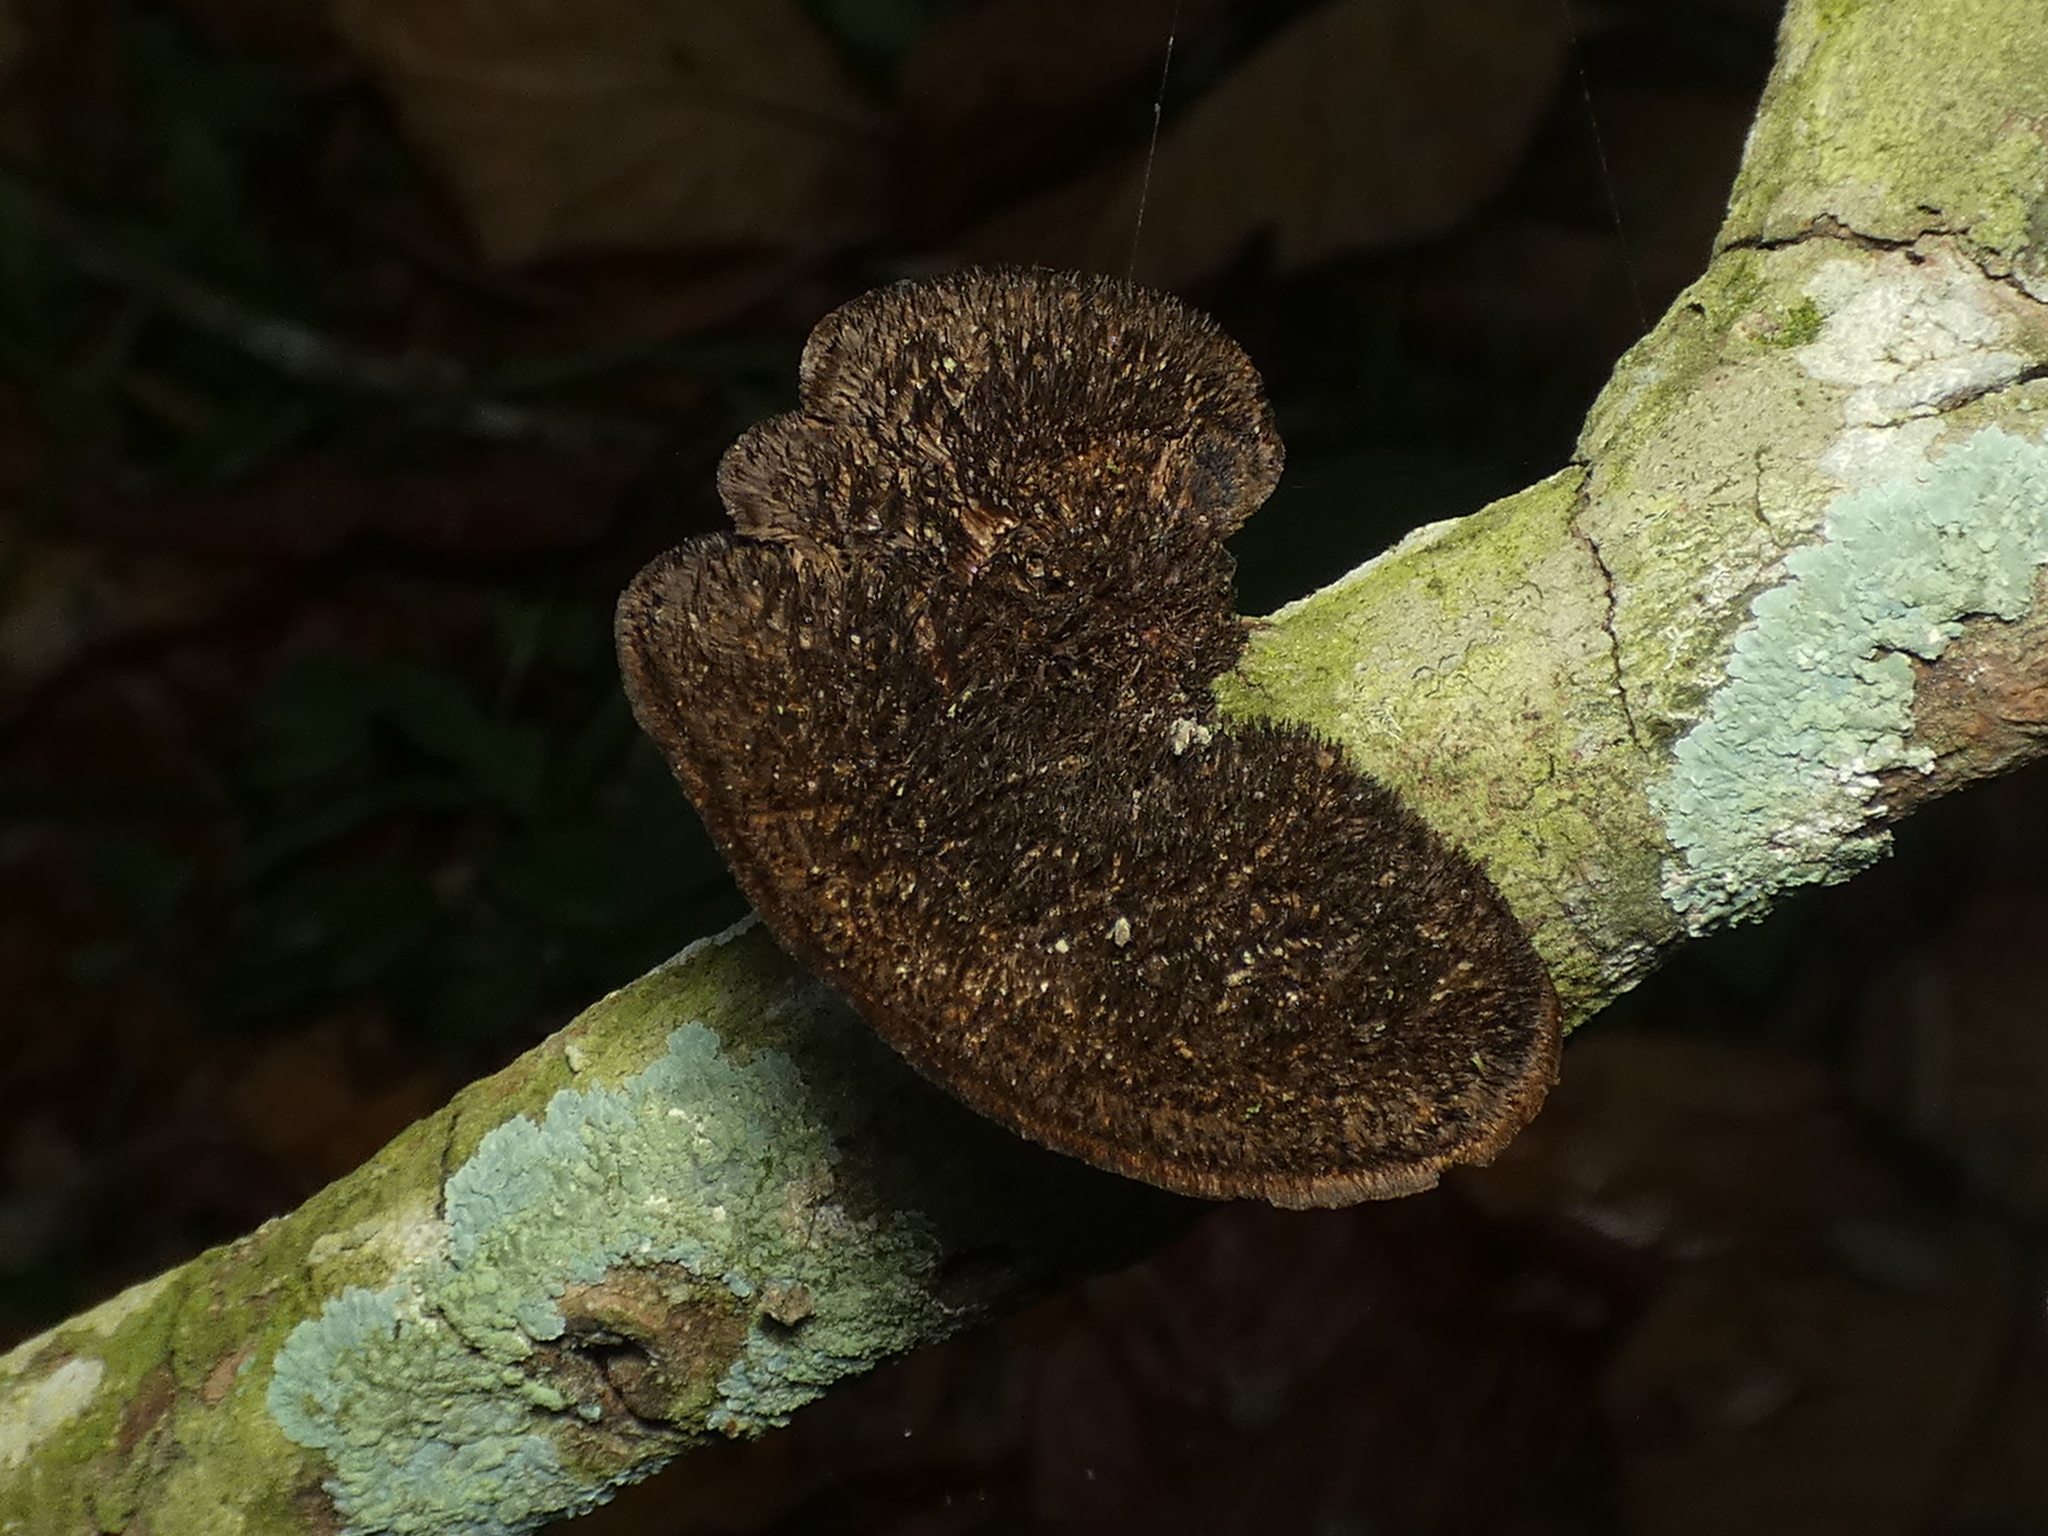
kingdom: Fungi
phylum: Basidiomycota
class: Agaricomycetes
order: Polyporales
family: Cerrenaceae
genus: Cerrena
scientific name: Cerrena hydnoides
